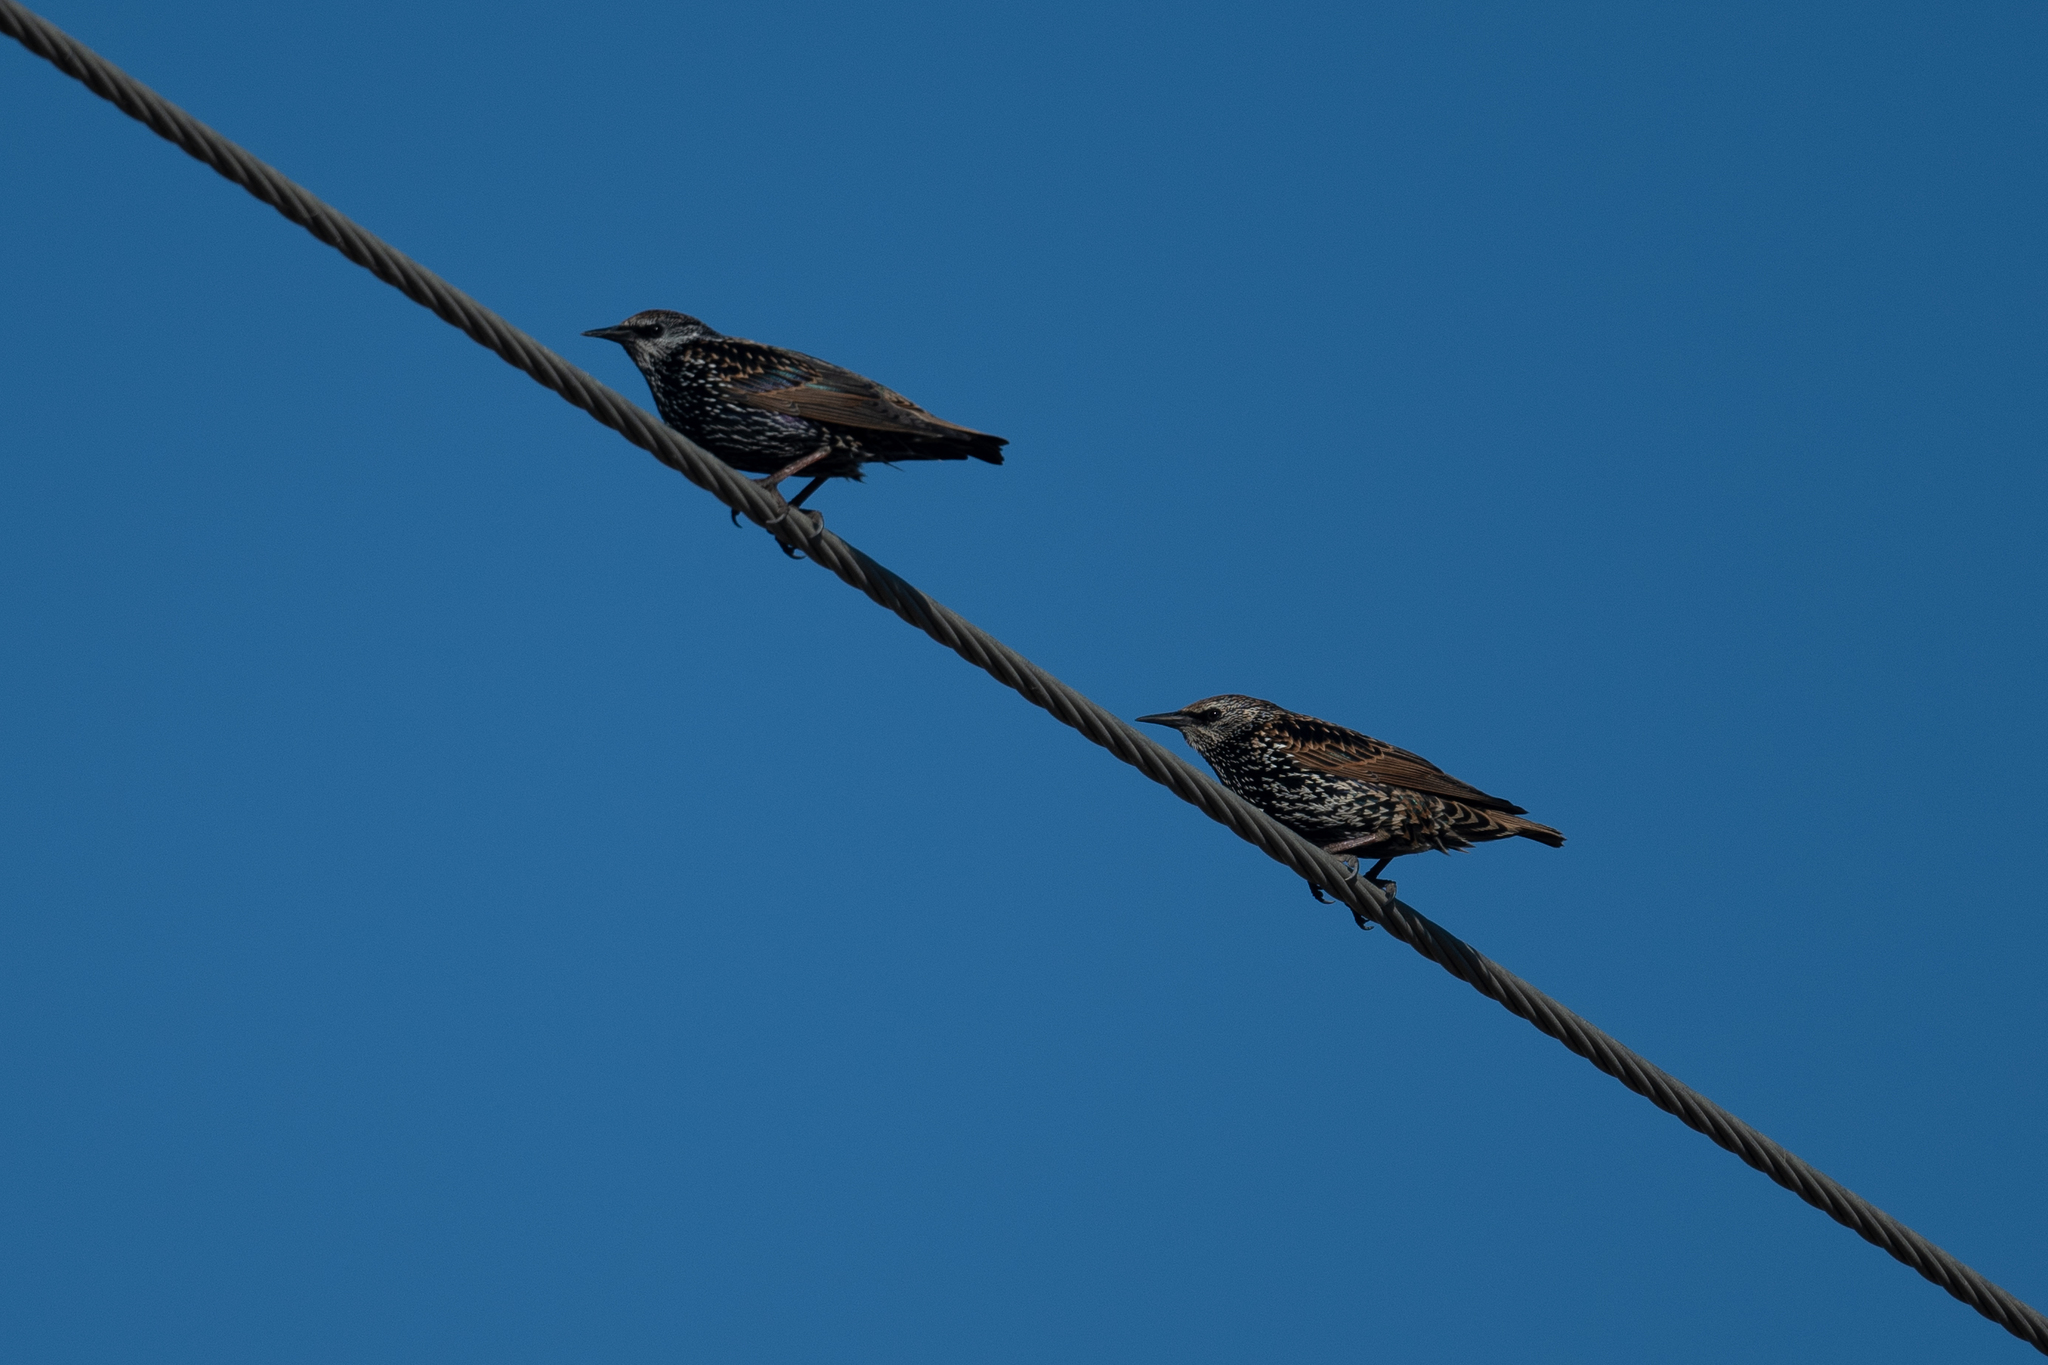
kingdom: Animalia
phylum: Chordata
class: Aves
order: Passeriformes
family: Sturnidae
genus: Sturnus
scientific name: Sturnus vulgaris
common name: Common starling
